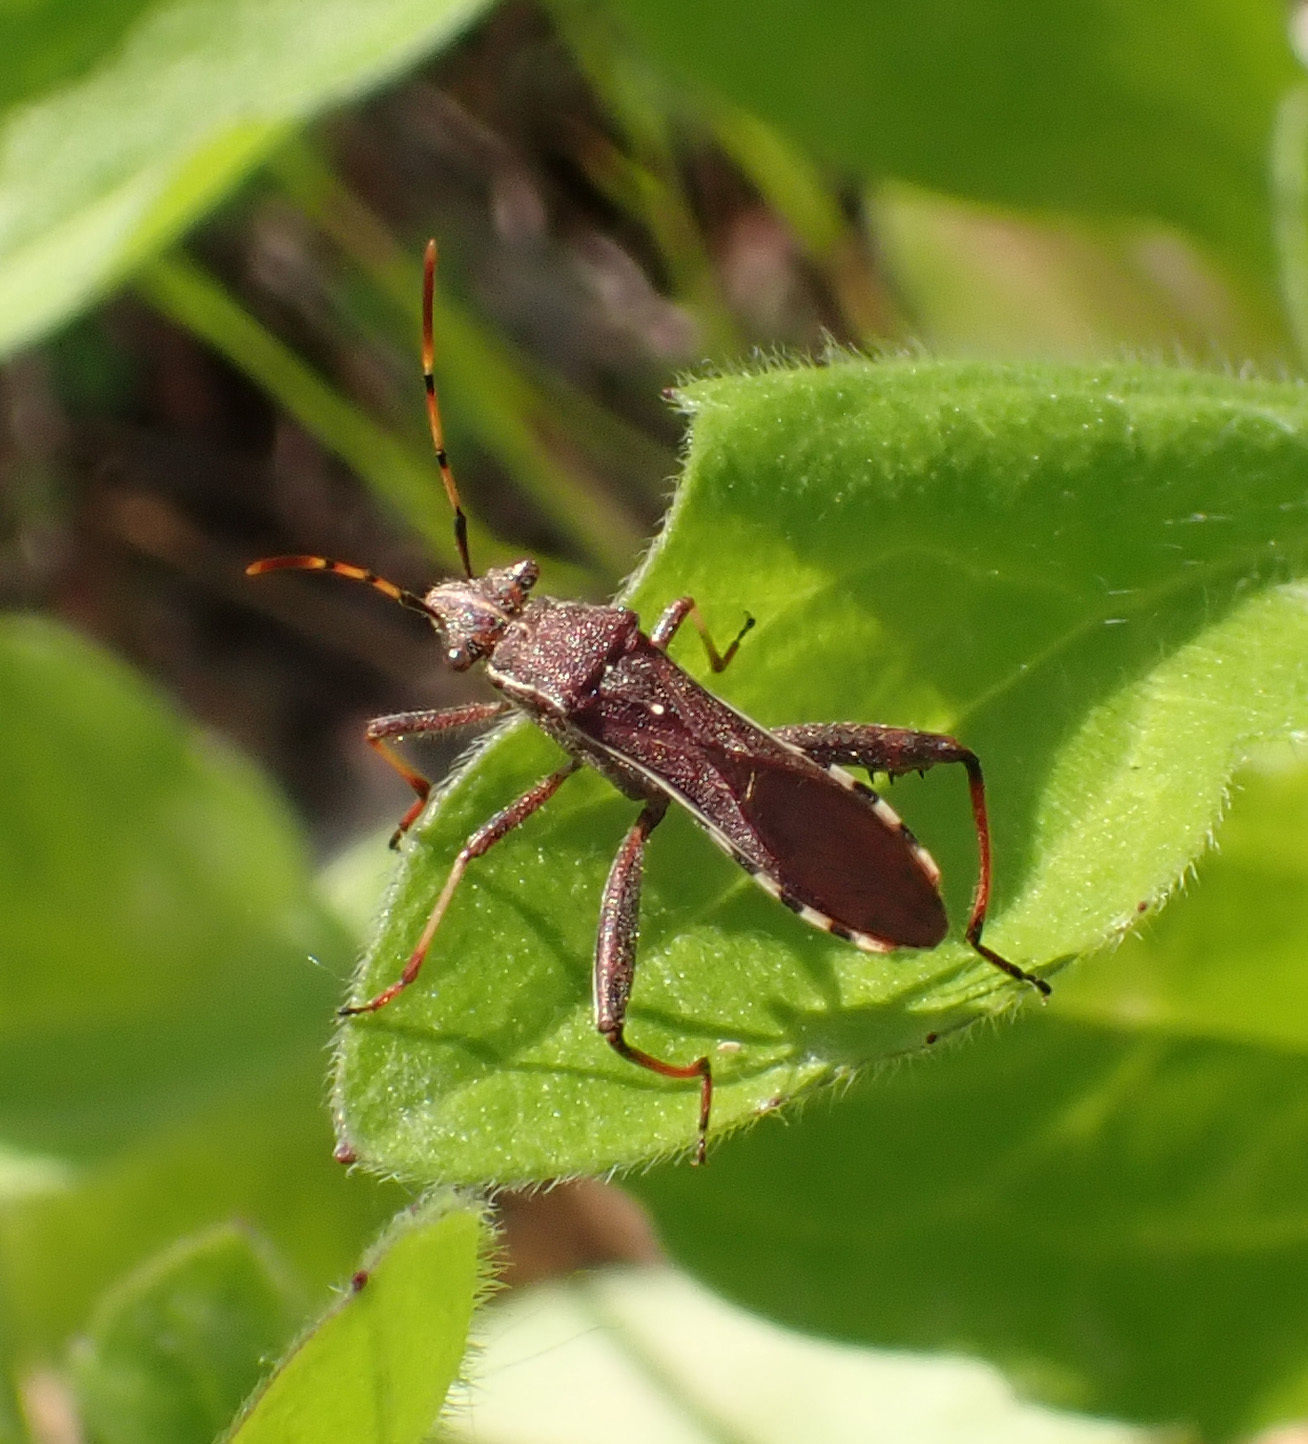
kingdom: Animalia
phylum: Arthropoda
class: Insecta
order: Hemiptera
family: Alydidae
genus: Camptopus
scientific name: Camptopus lateralis
